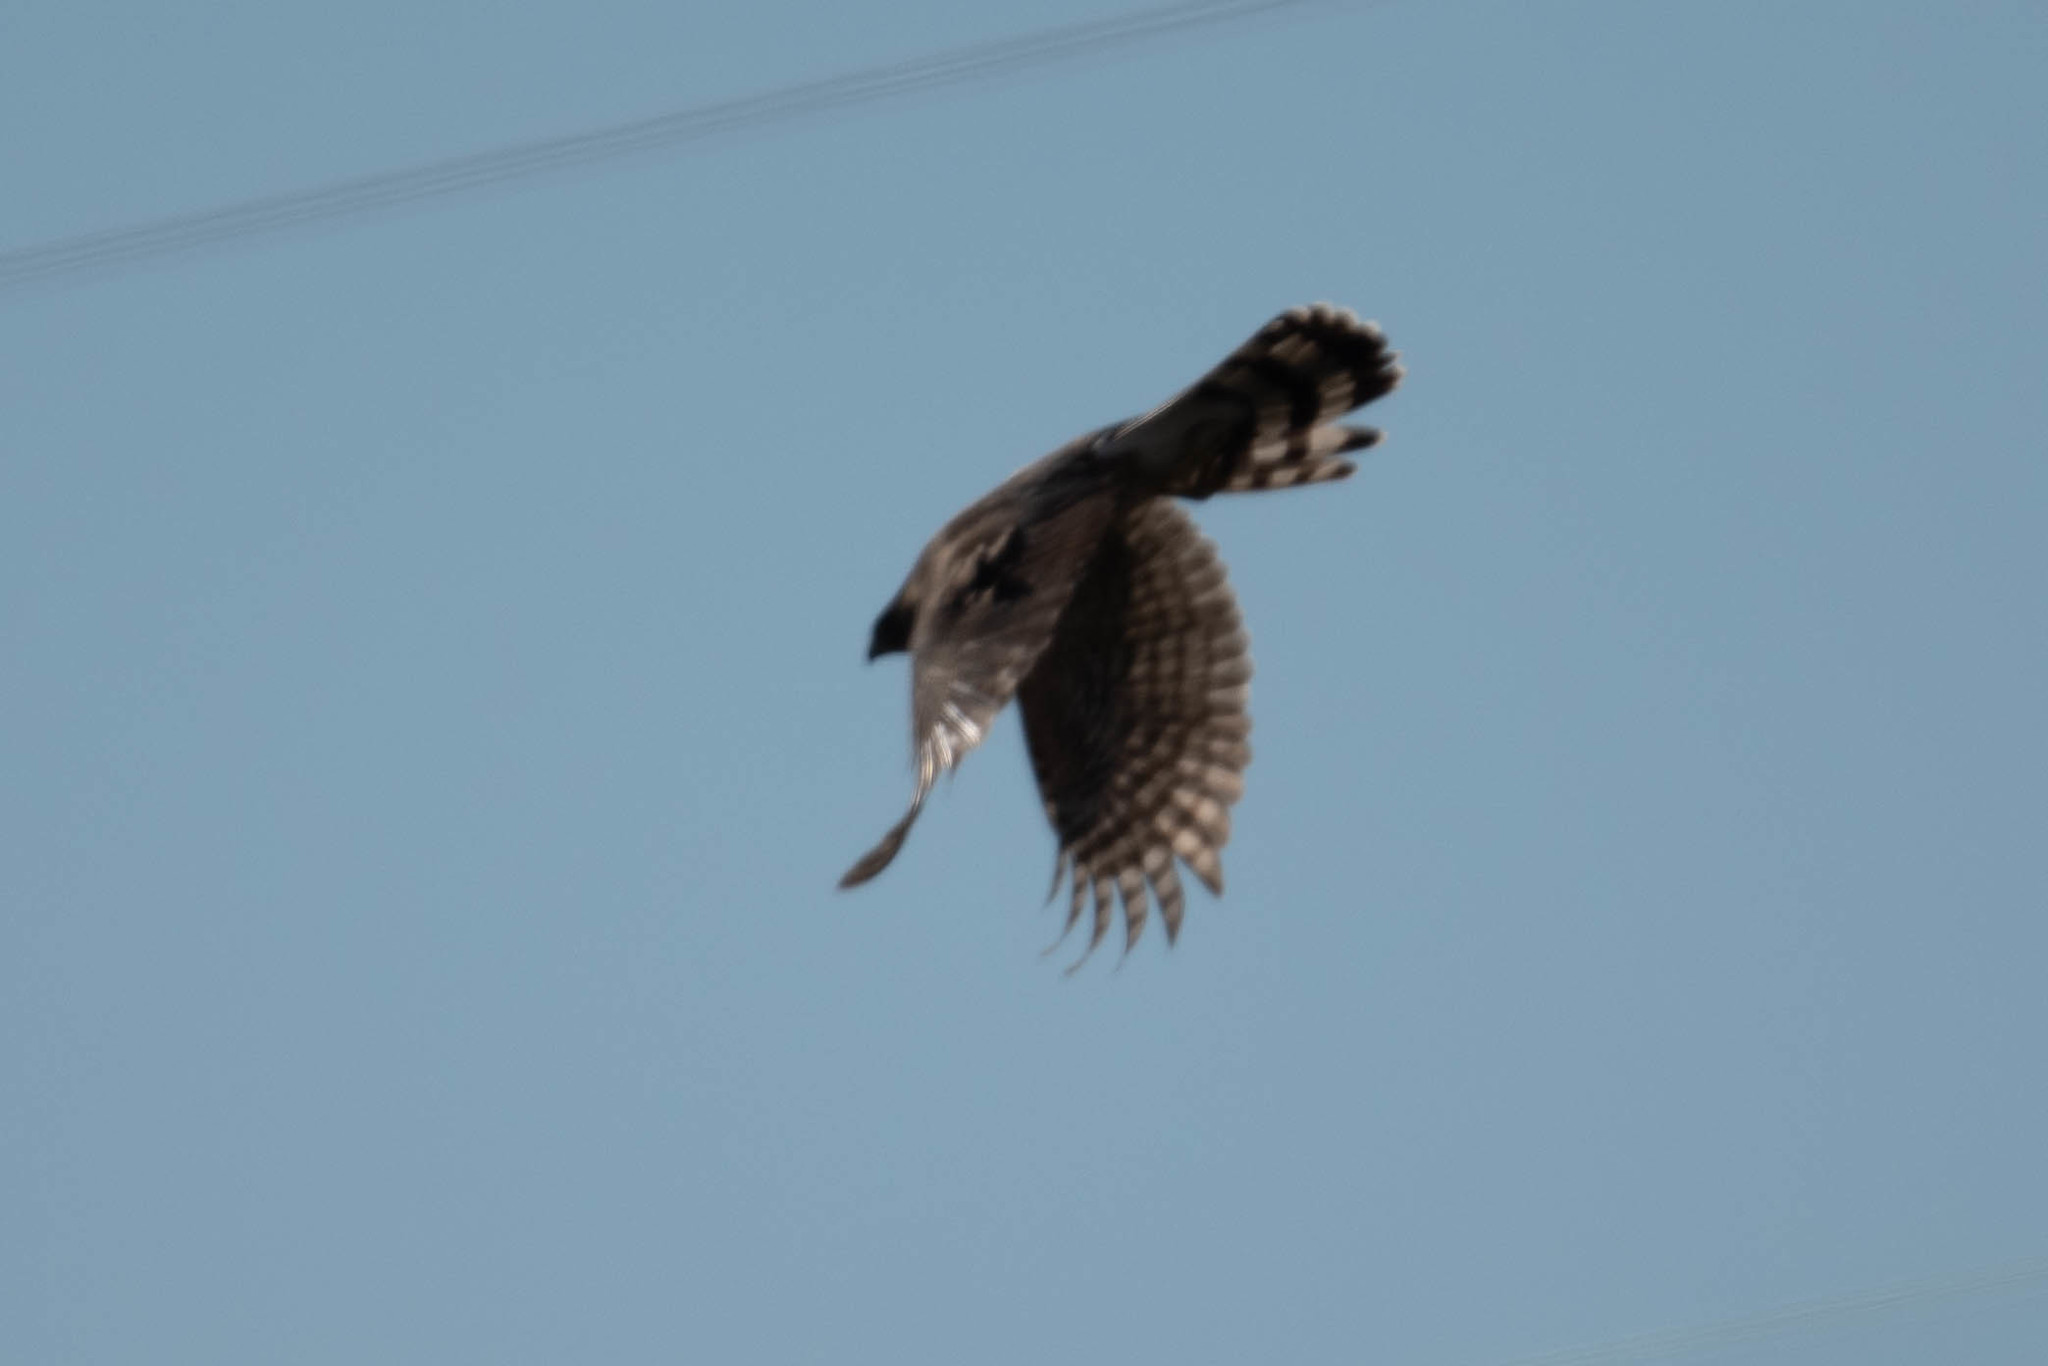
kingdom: Animalia
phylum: Chordata
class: Aves
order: Accipitriformes
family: Accipitridae
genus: Accipiter
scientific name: Accipiter cooperii
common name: Cooper's hawk
